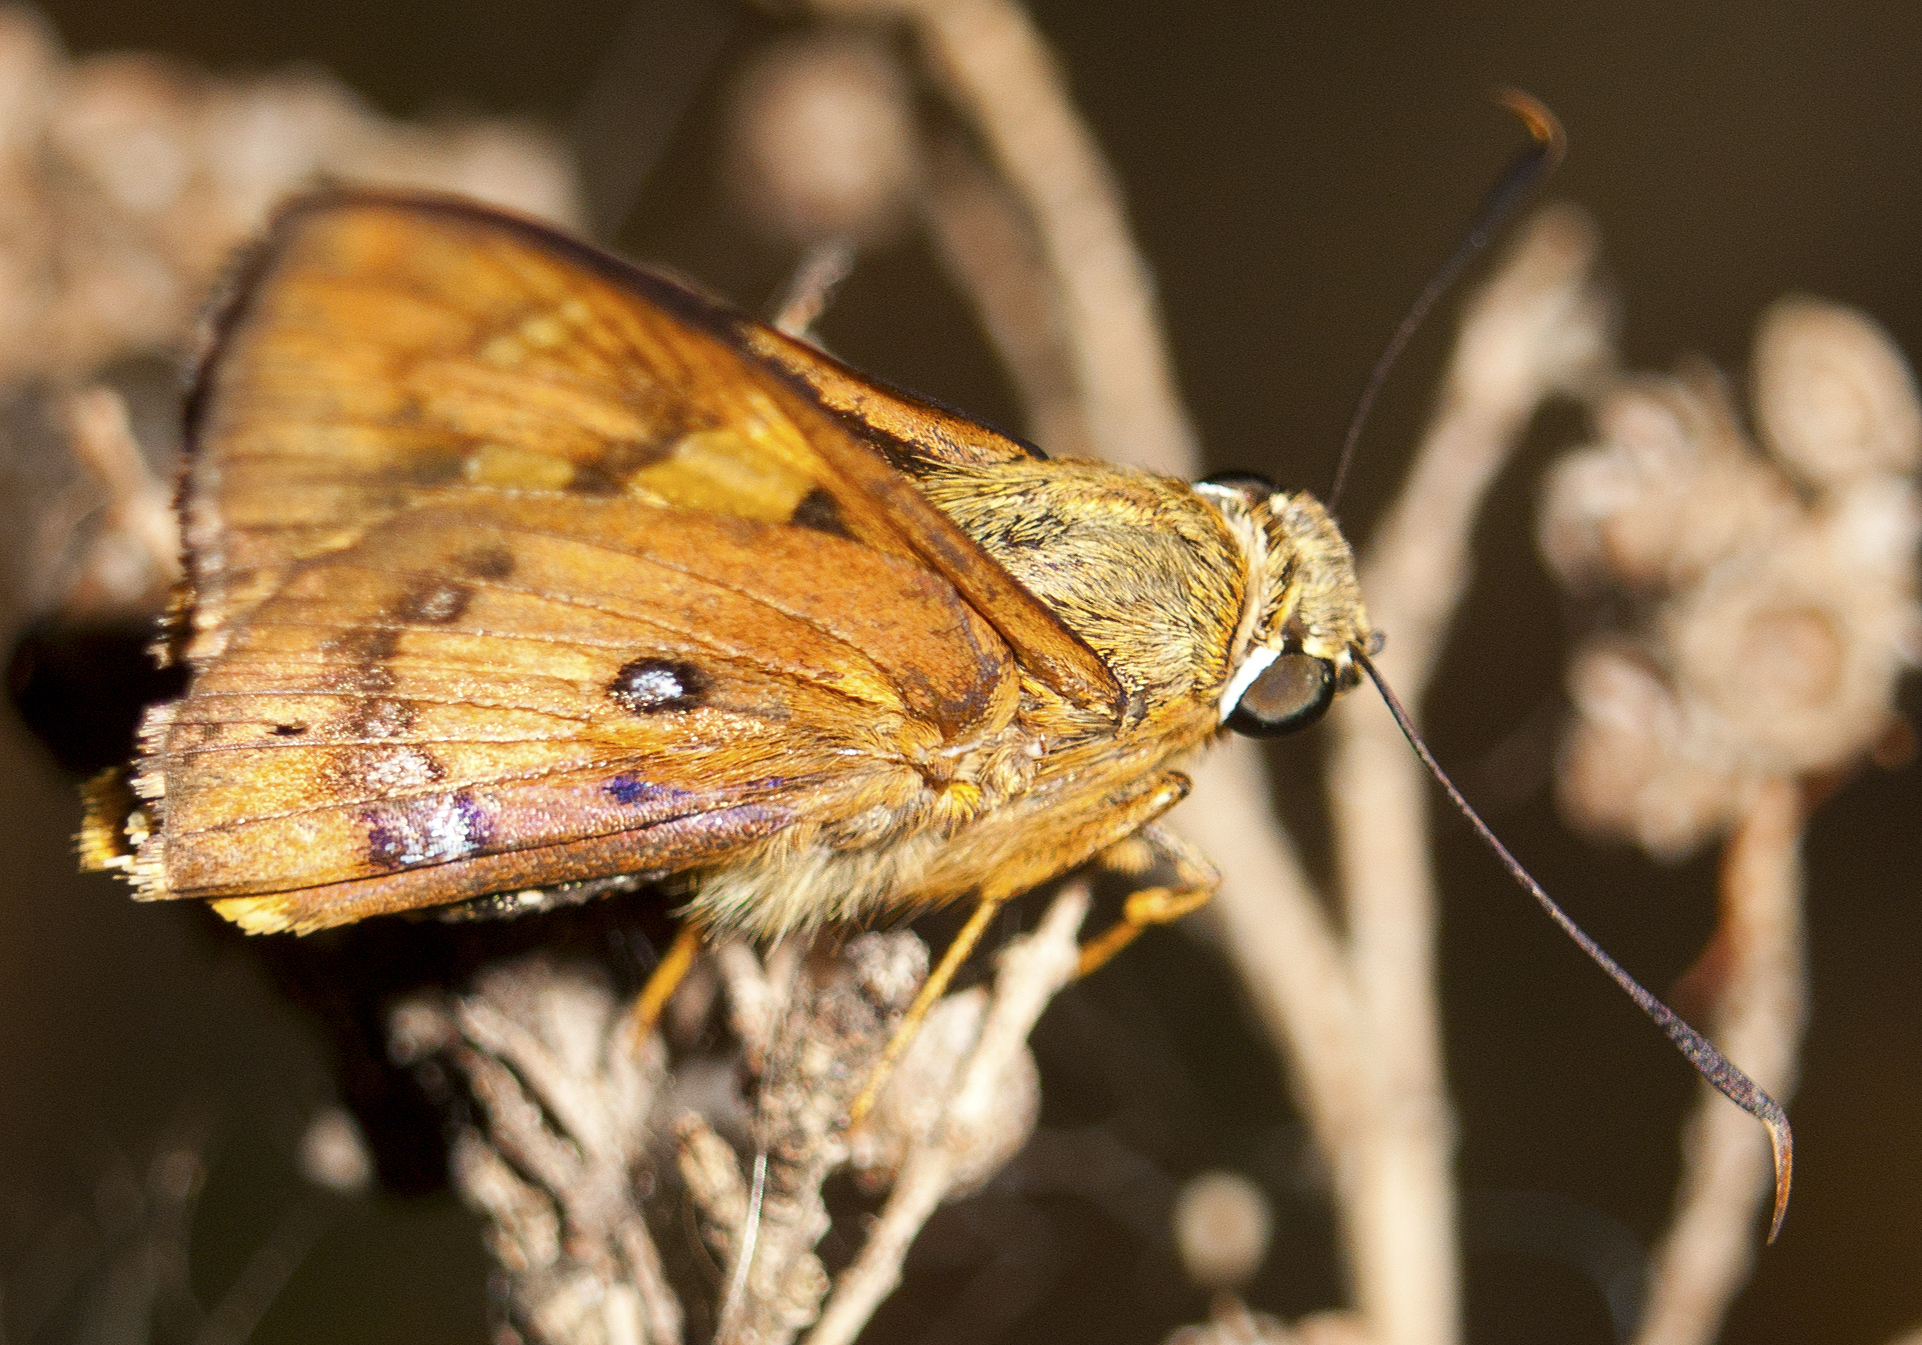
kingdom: Animalia
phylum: Arthropoda
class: Insecta
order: Lepidoptera
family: Hesperiidae
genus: Trapezites
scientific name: Trapezites symmomus
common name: Splendid ochre
